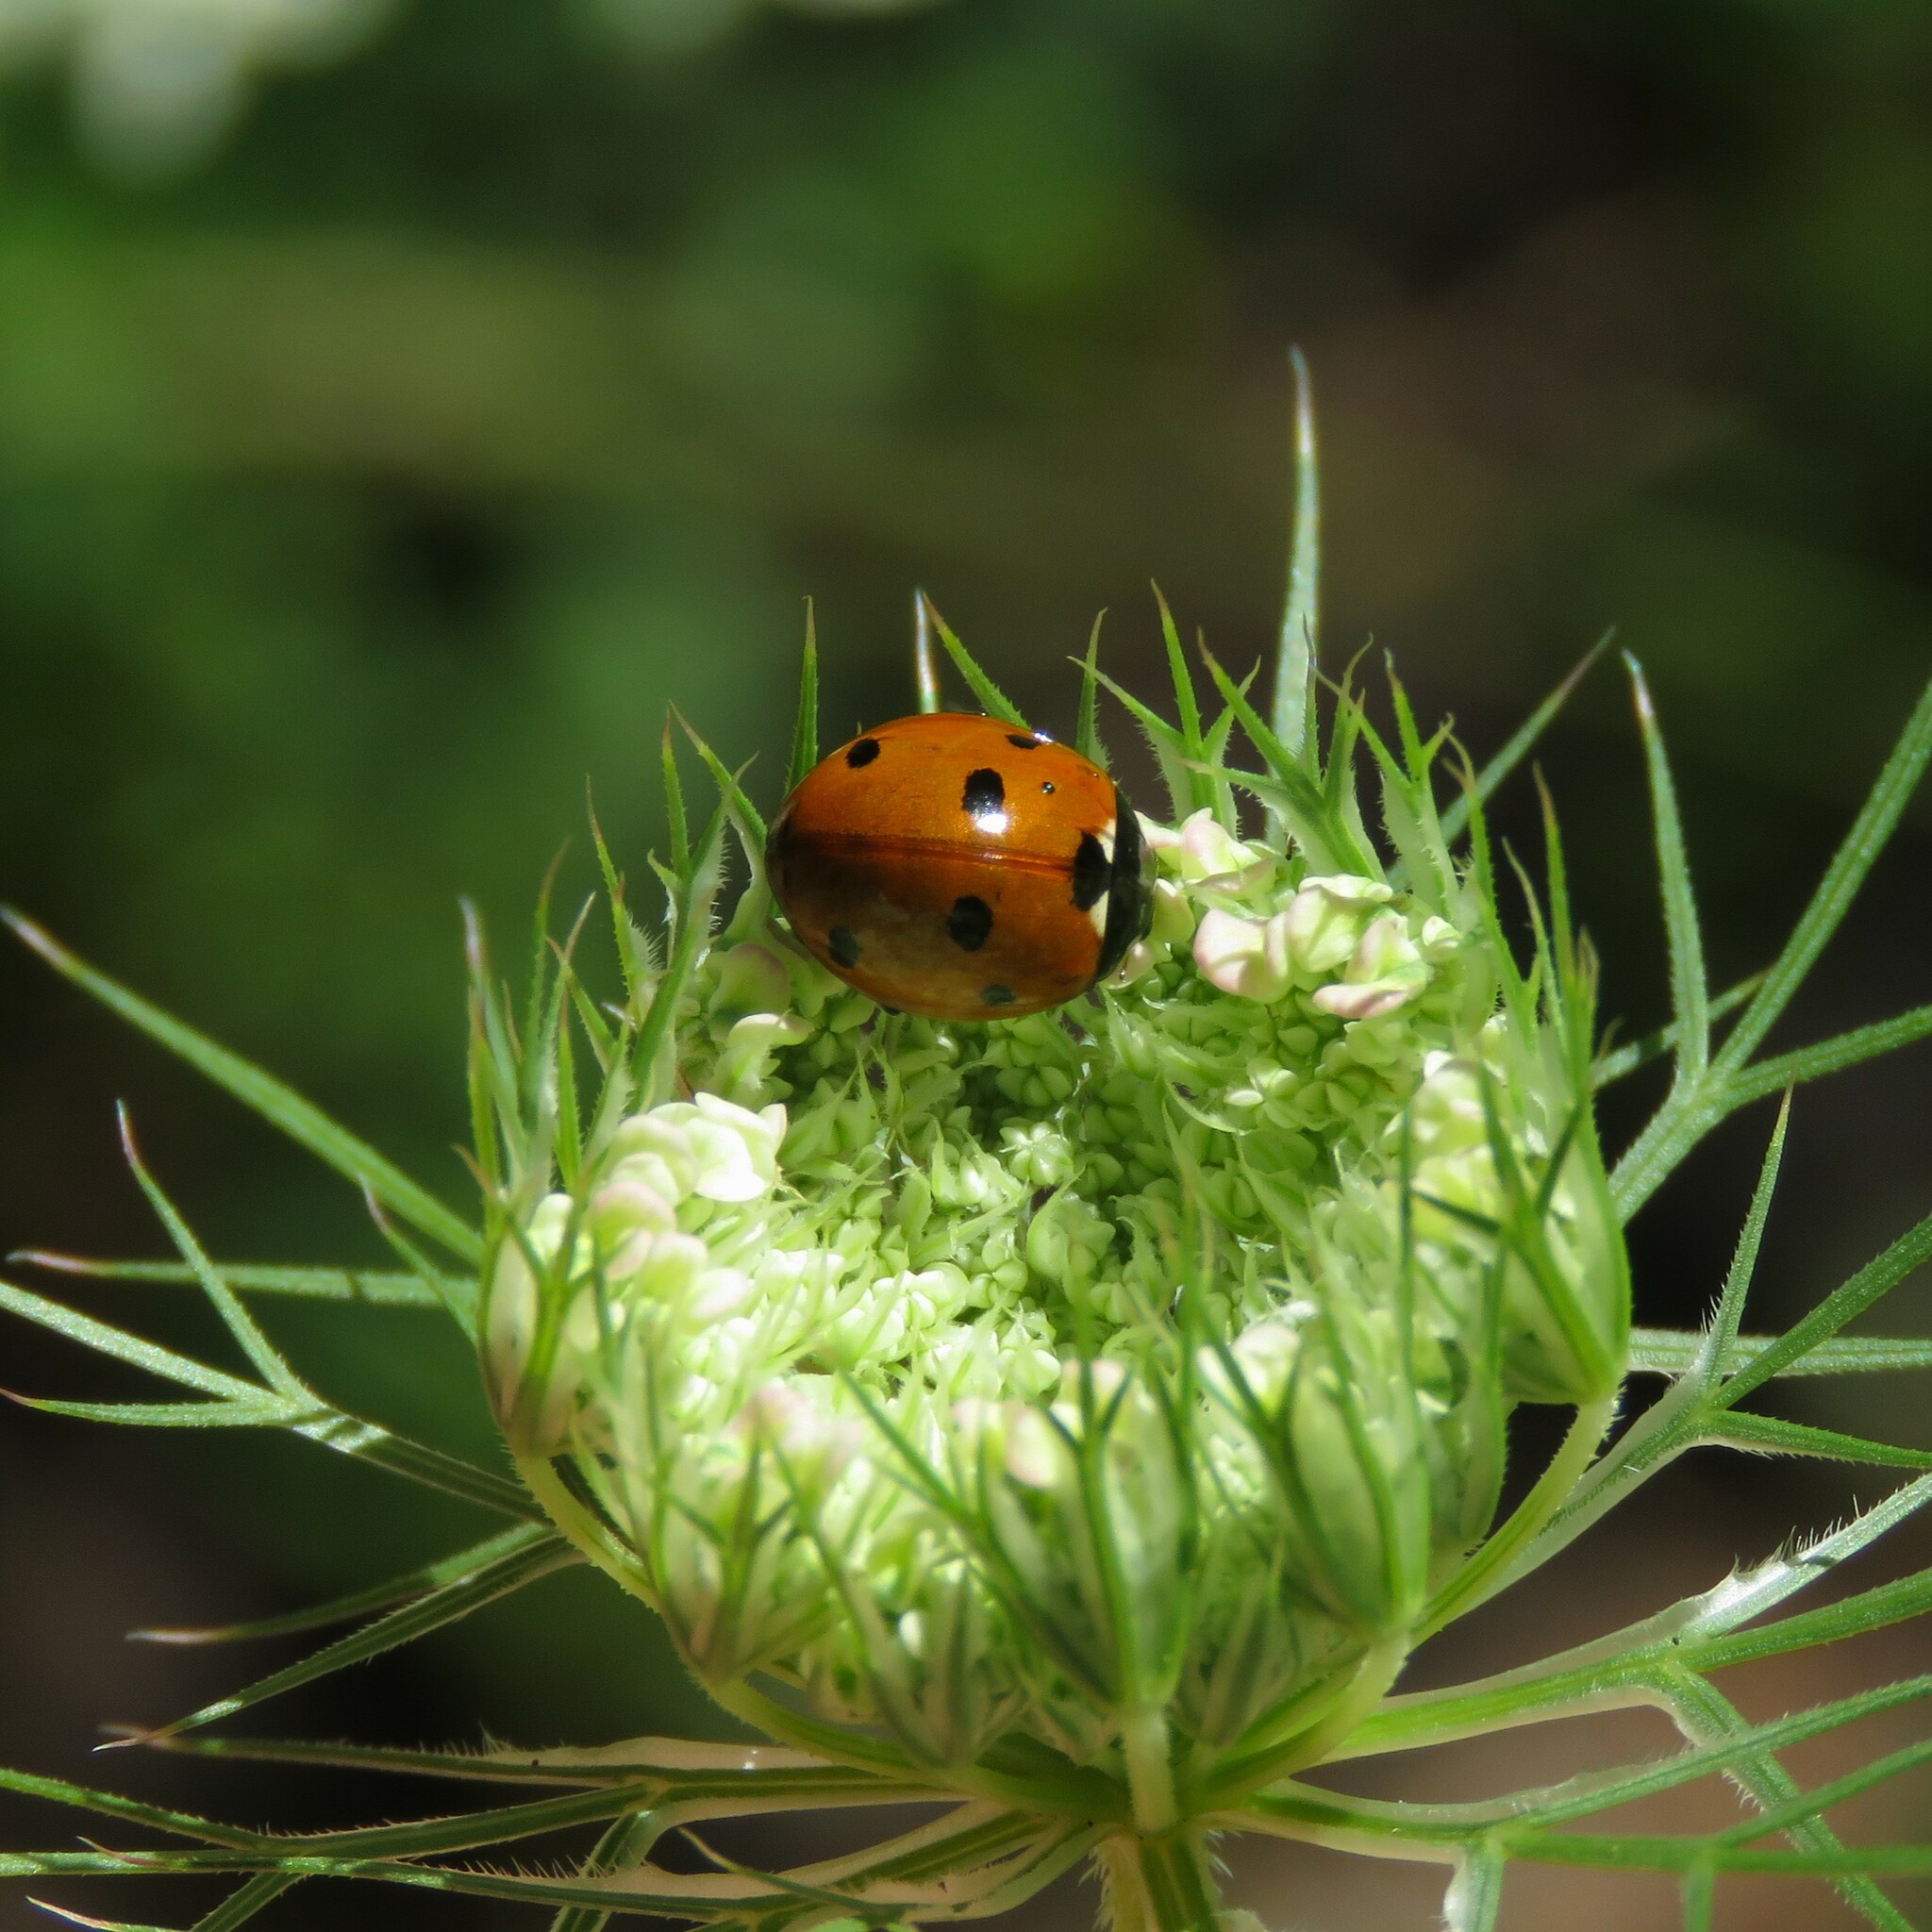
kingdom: Animalia
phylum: Arthropoda
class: Insecta
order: Coleoptera
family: Coccinellidae
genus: Coccinella
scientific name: Coccinella septempunctata
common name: Sevenspotted lady beetle
